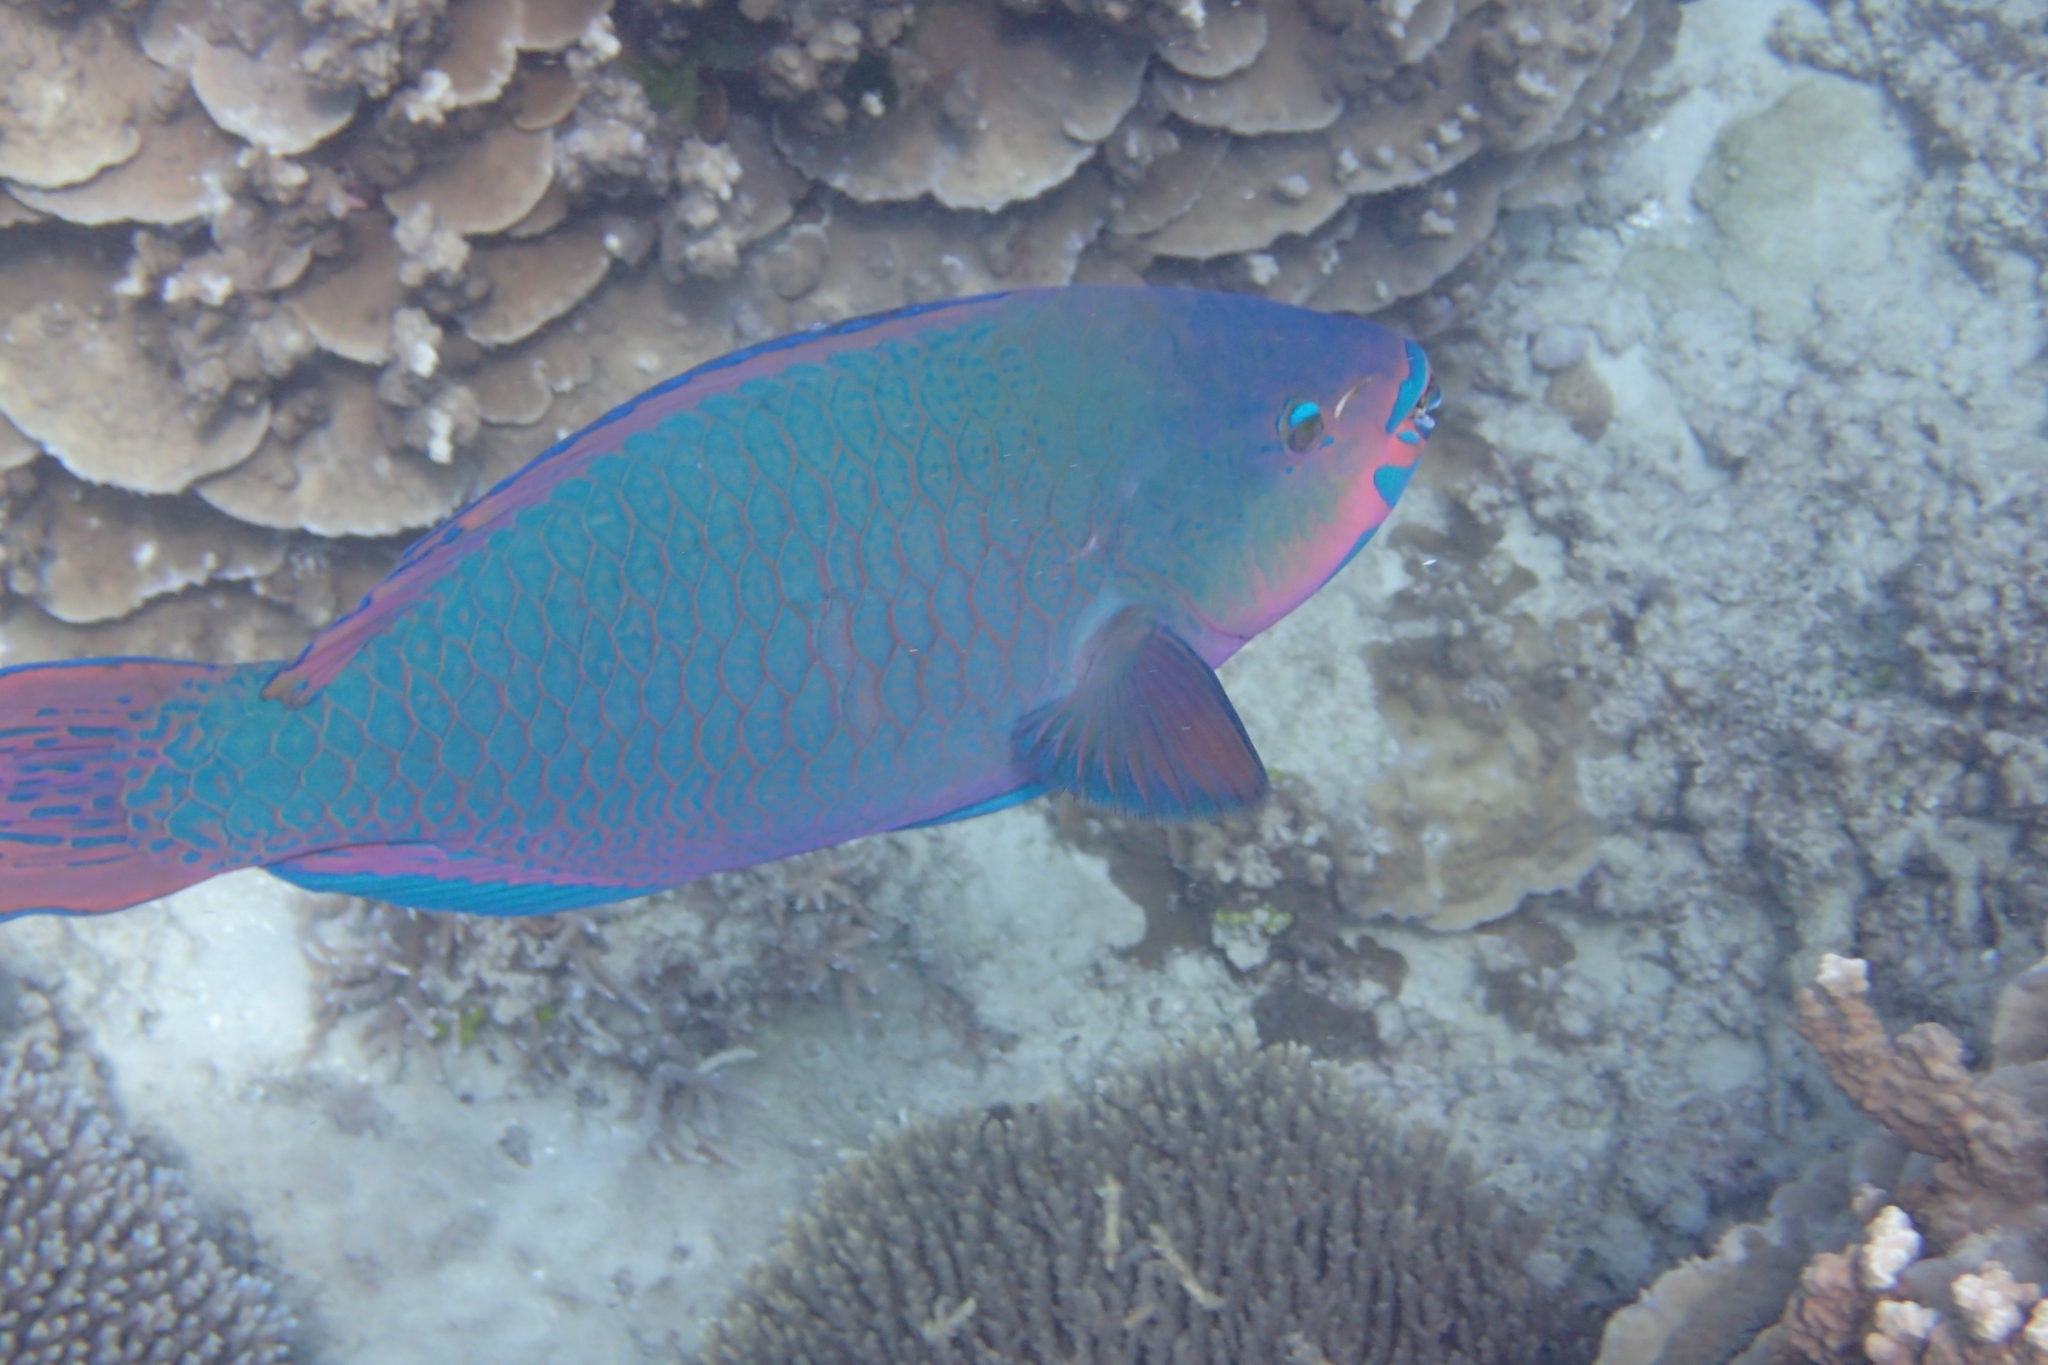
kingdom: Animalia
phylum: Chordata
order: Perciformes
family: Scaridae
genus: Scarus
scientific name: Scarus altipinnis
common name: Minifin parrotfish
